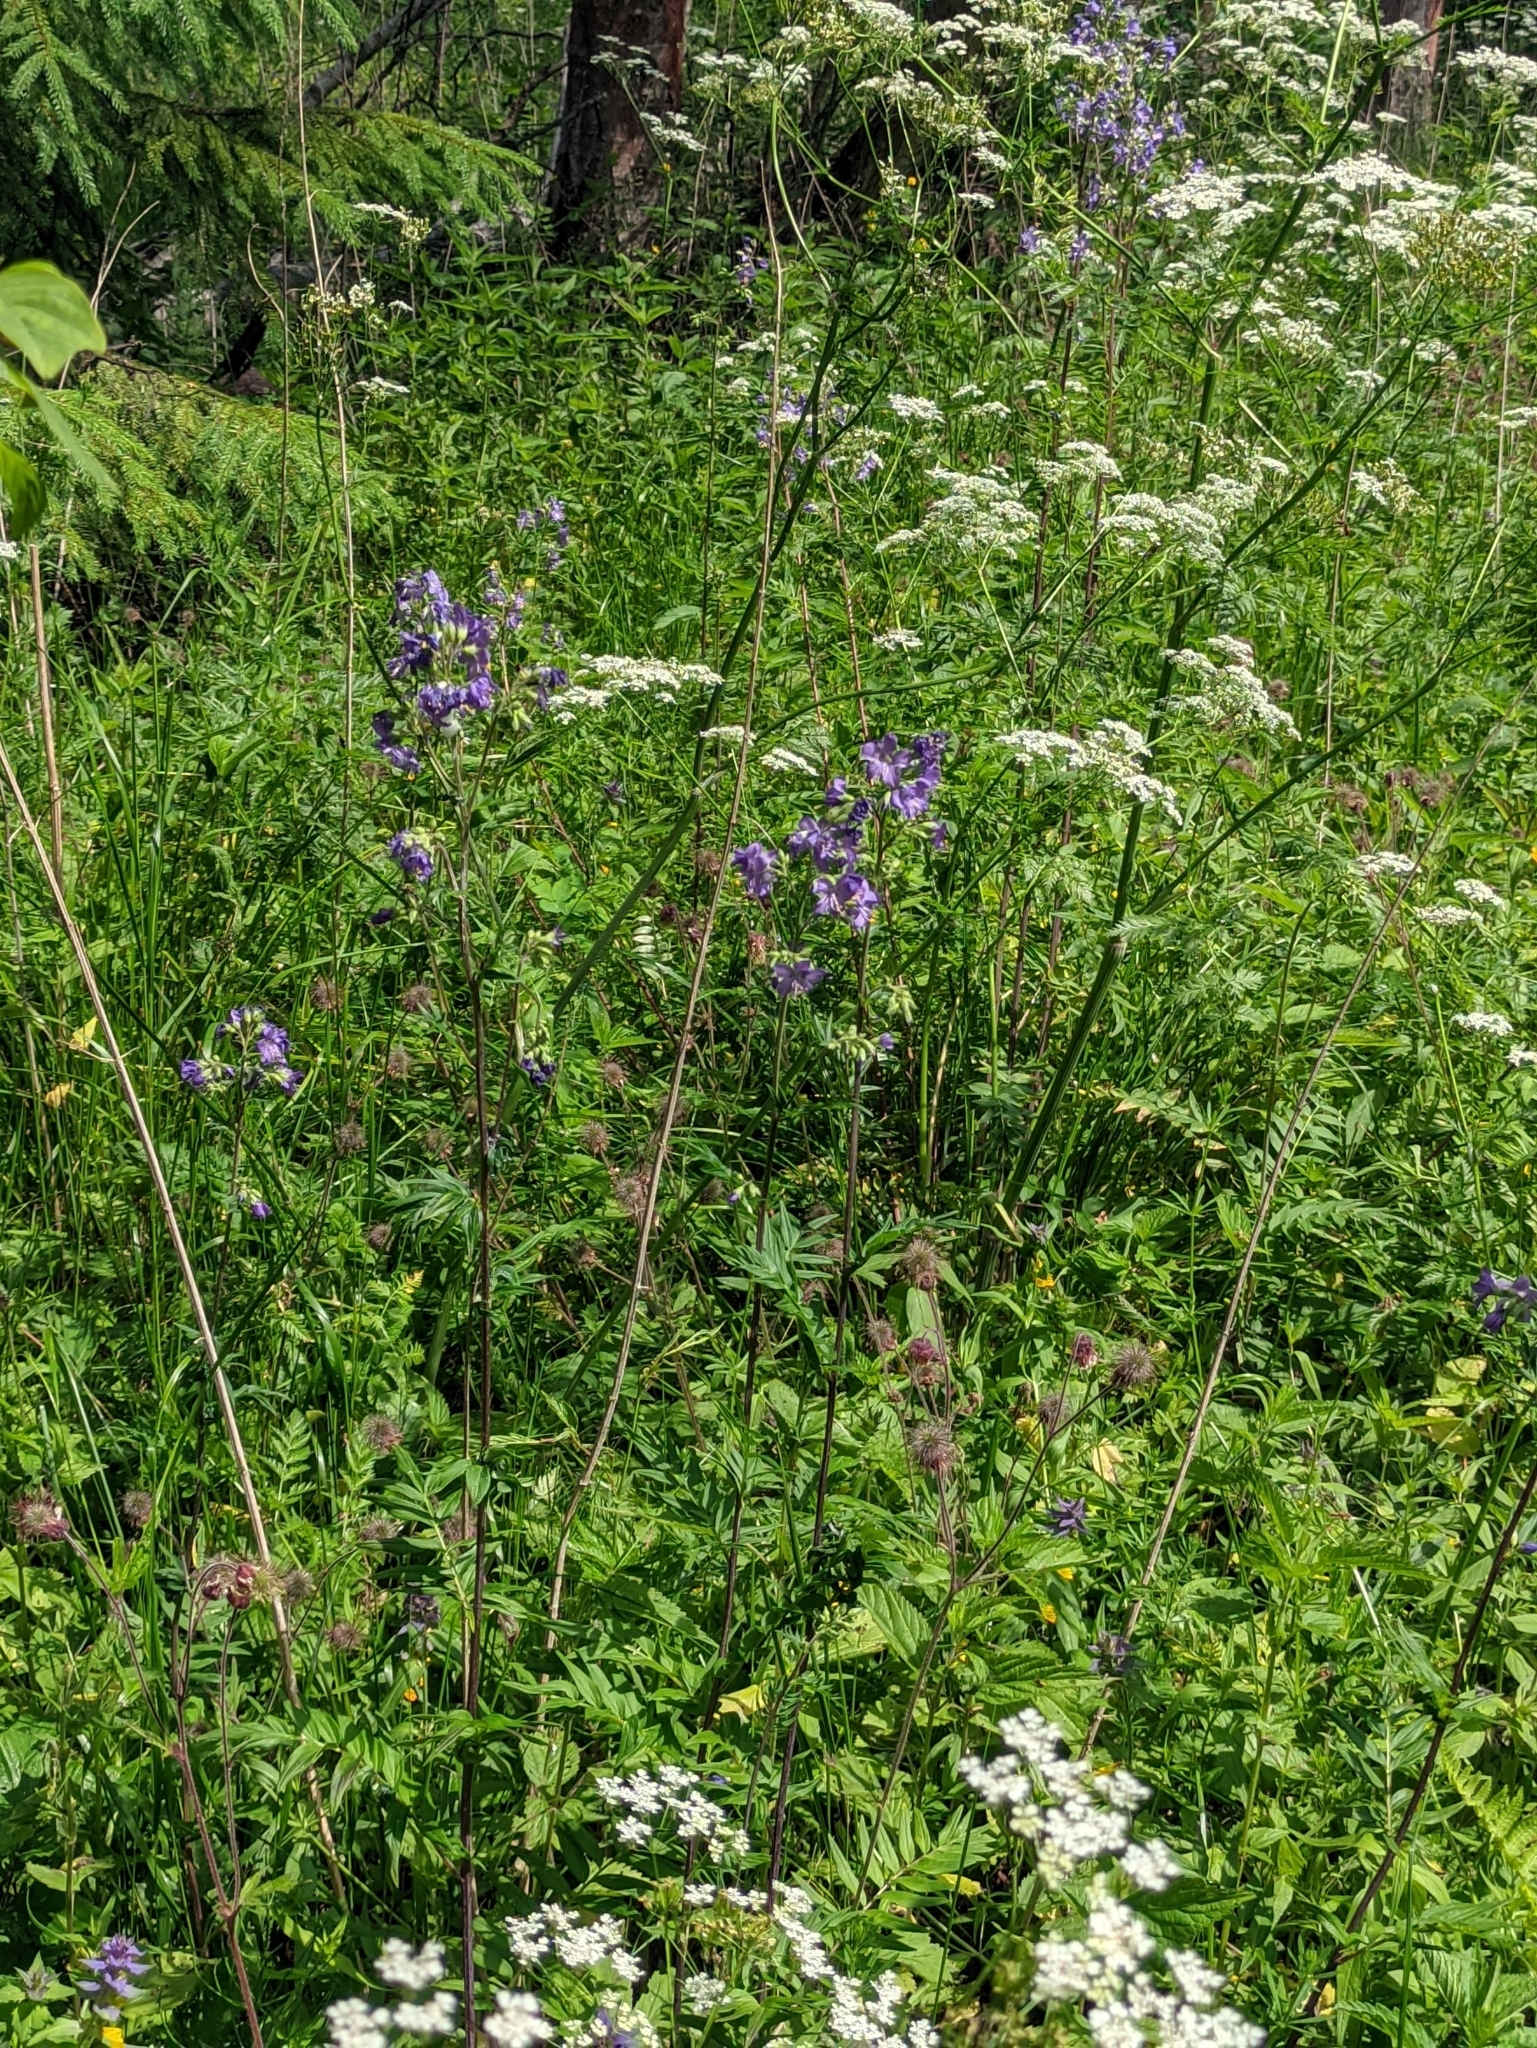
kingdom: Plantae
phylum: Tracheophyta
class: Magnoliopsida
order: Ericales
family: Polemoniaceae
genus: Polemonium
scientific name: Polemonium caeruleum
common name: Jacob's-ladder
